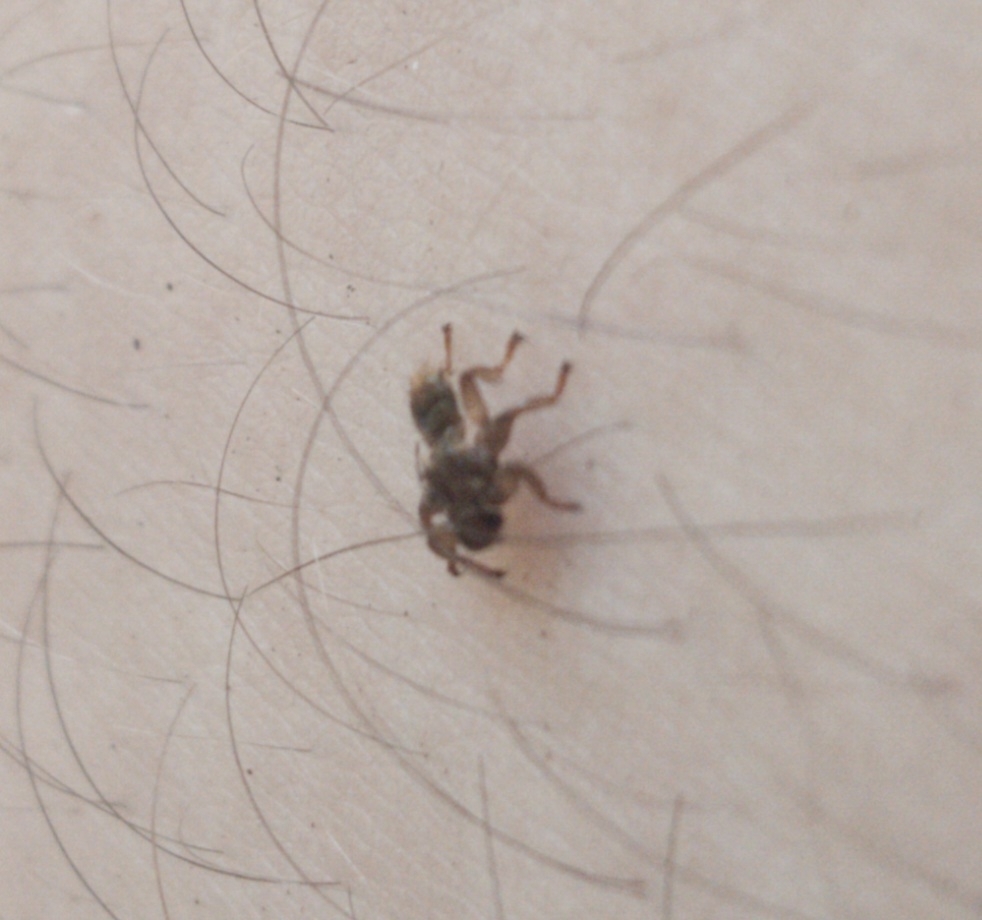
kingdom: Animalia
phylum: Arthropoda
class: Insecta
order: Diptera
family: Hippoboscidae
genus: Lipoptena
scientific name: Lipoptena cervi
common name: Deer ked
